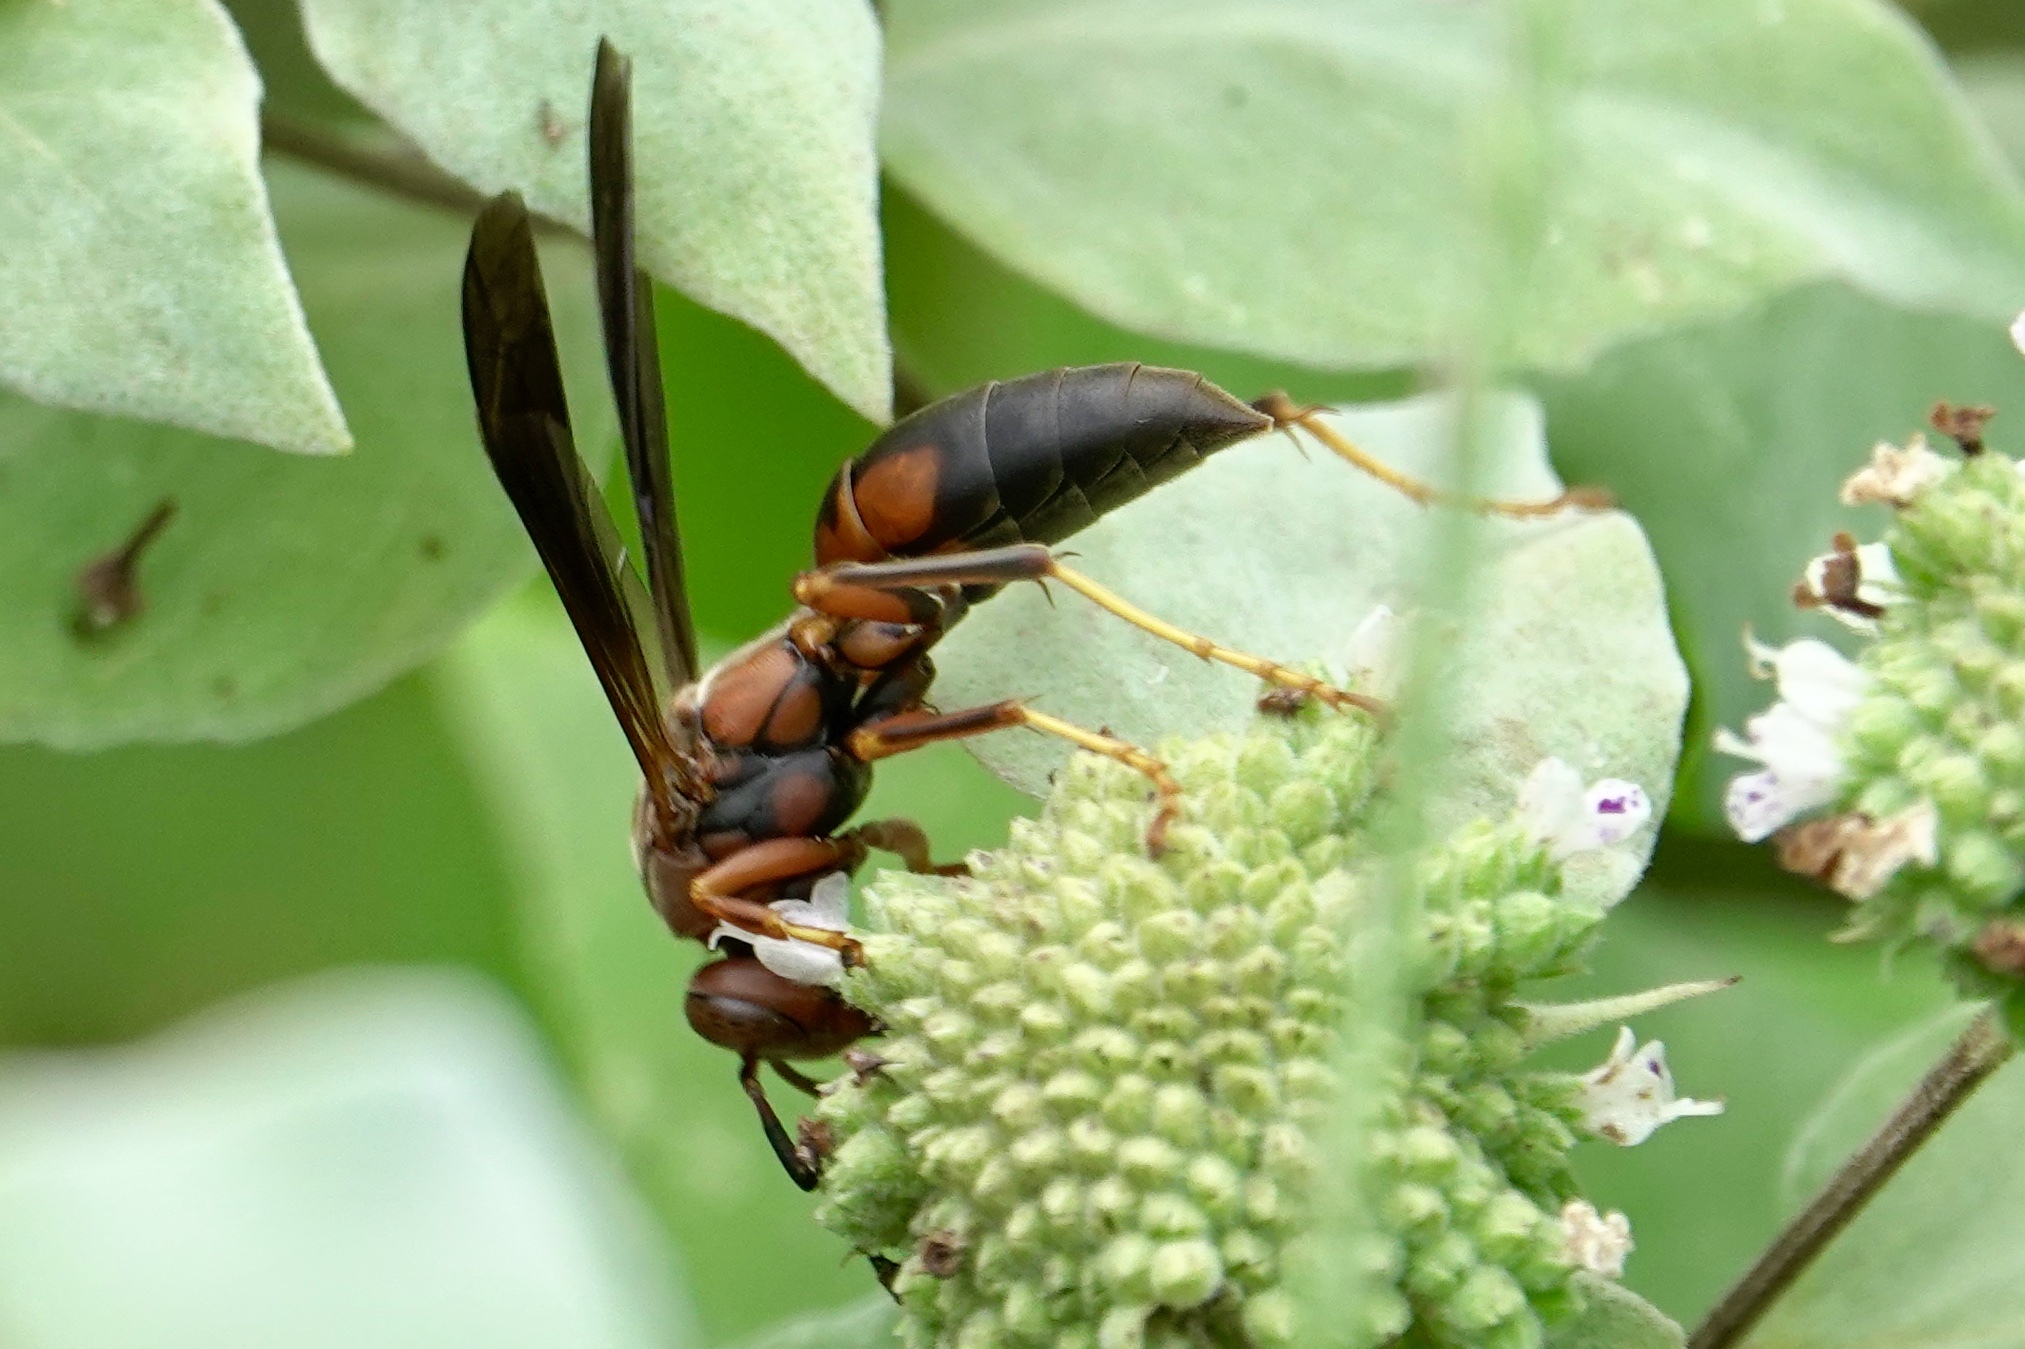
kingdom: Animalia
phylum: Arthropoda
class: Insecta
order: Hymenoptera
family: Vespidae
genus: Fuscopolistes
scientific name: Fuscopolistes
